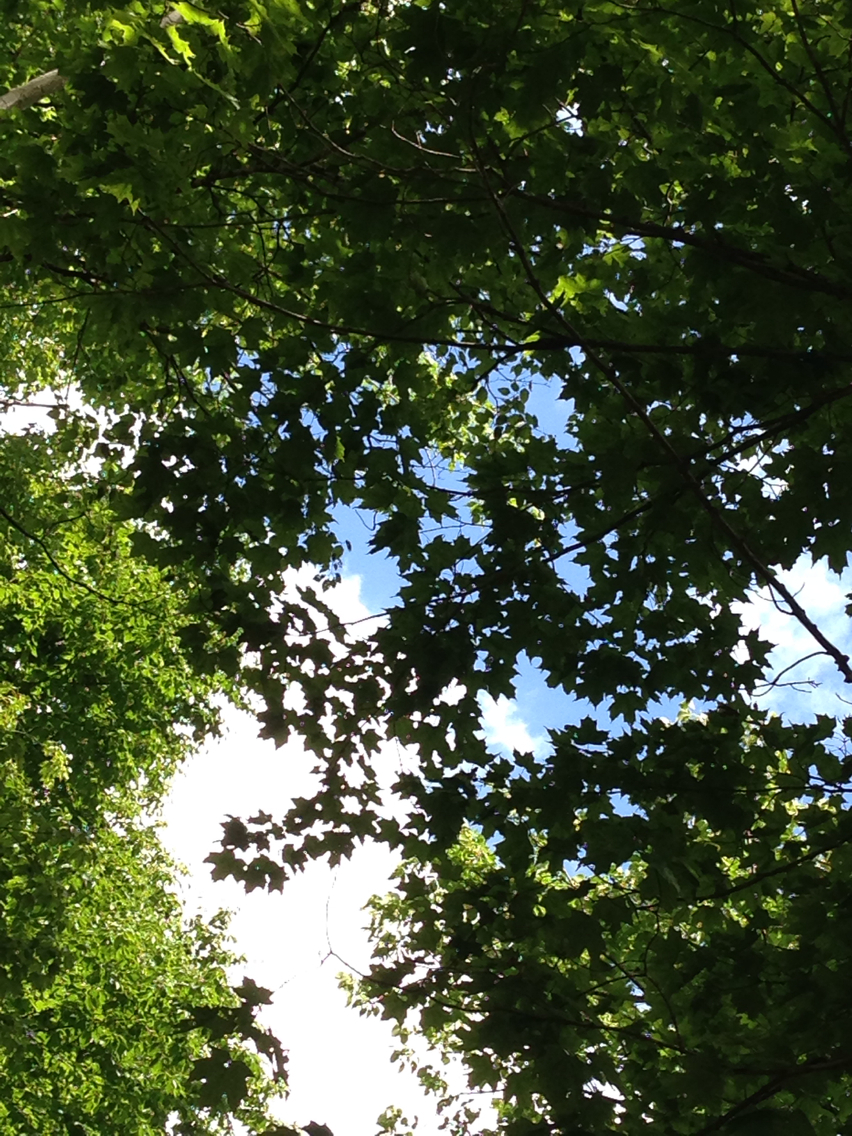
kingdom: Plantae
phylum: Tracheophyta
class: Magnoliopsida
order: Sapindales
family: Sapindaceae
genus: Acer
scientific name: Acer saccharum
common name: Sugar maple
